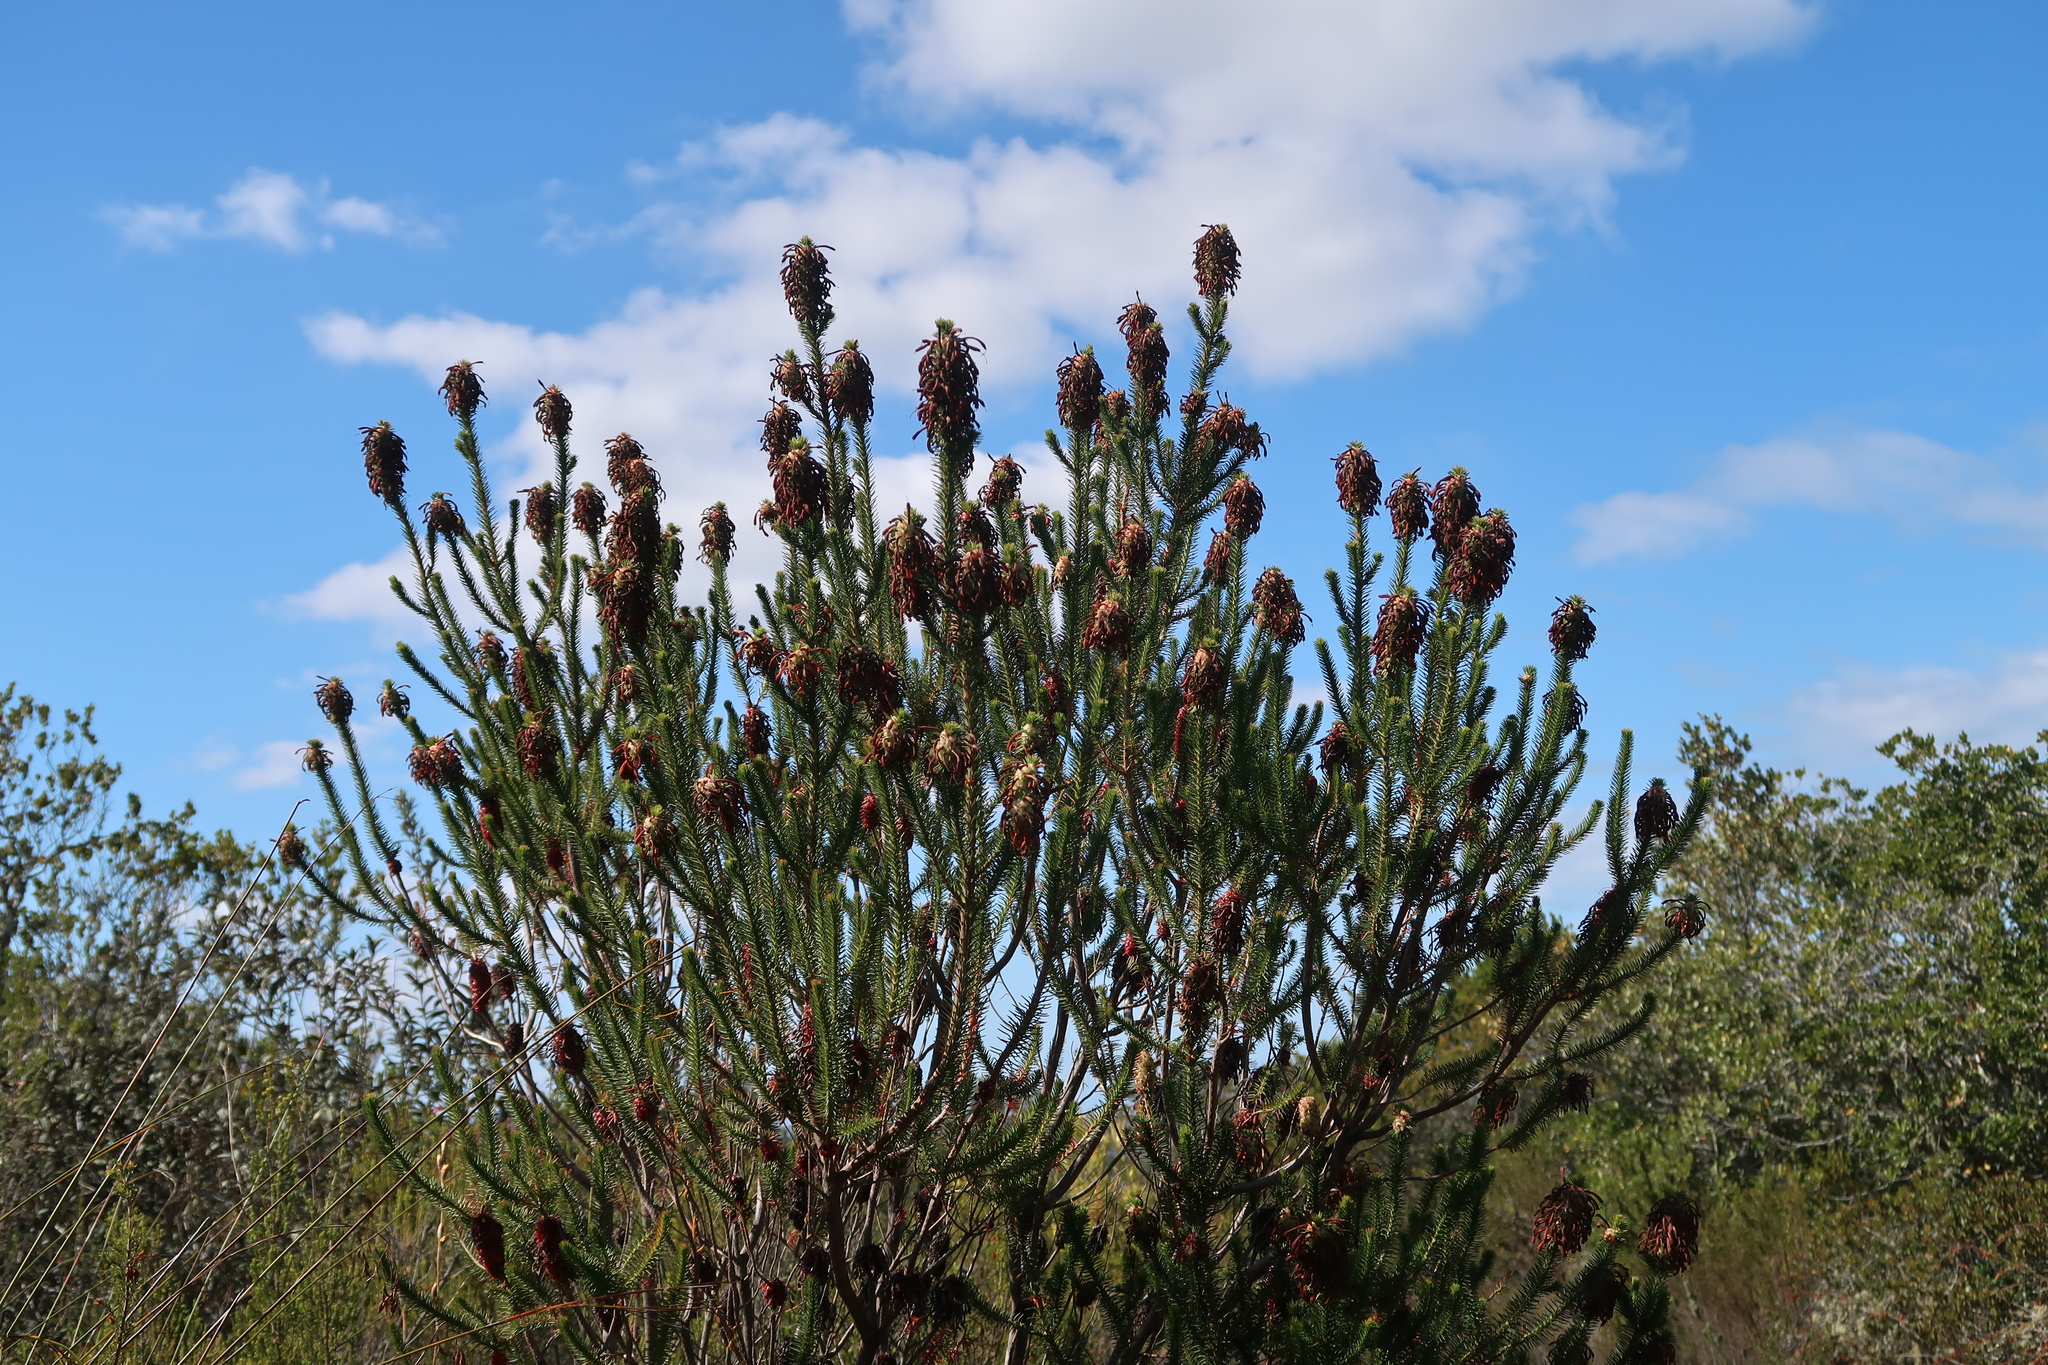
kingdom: Plantae
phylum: Tracheophyta
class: Magnoliopsida
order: Ericales
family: Ericaceae
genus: Erica
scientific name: Erica sessiliflora
